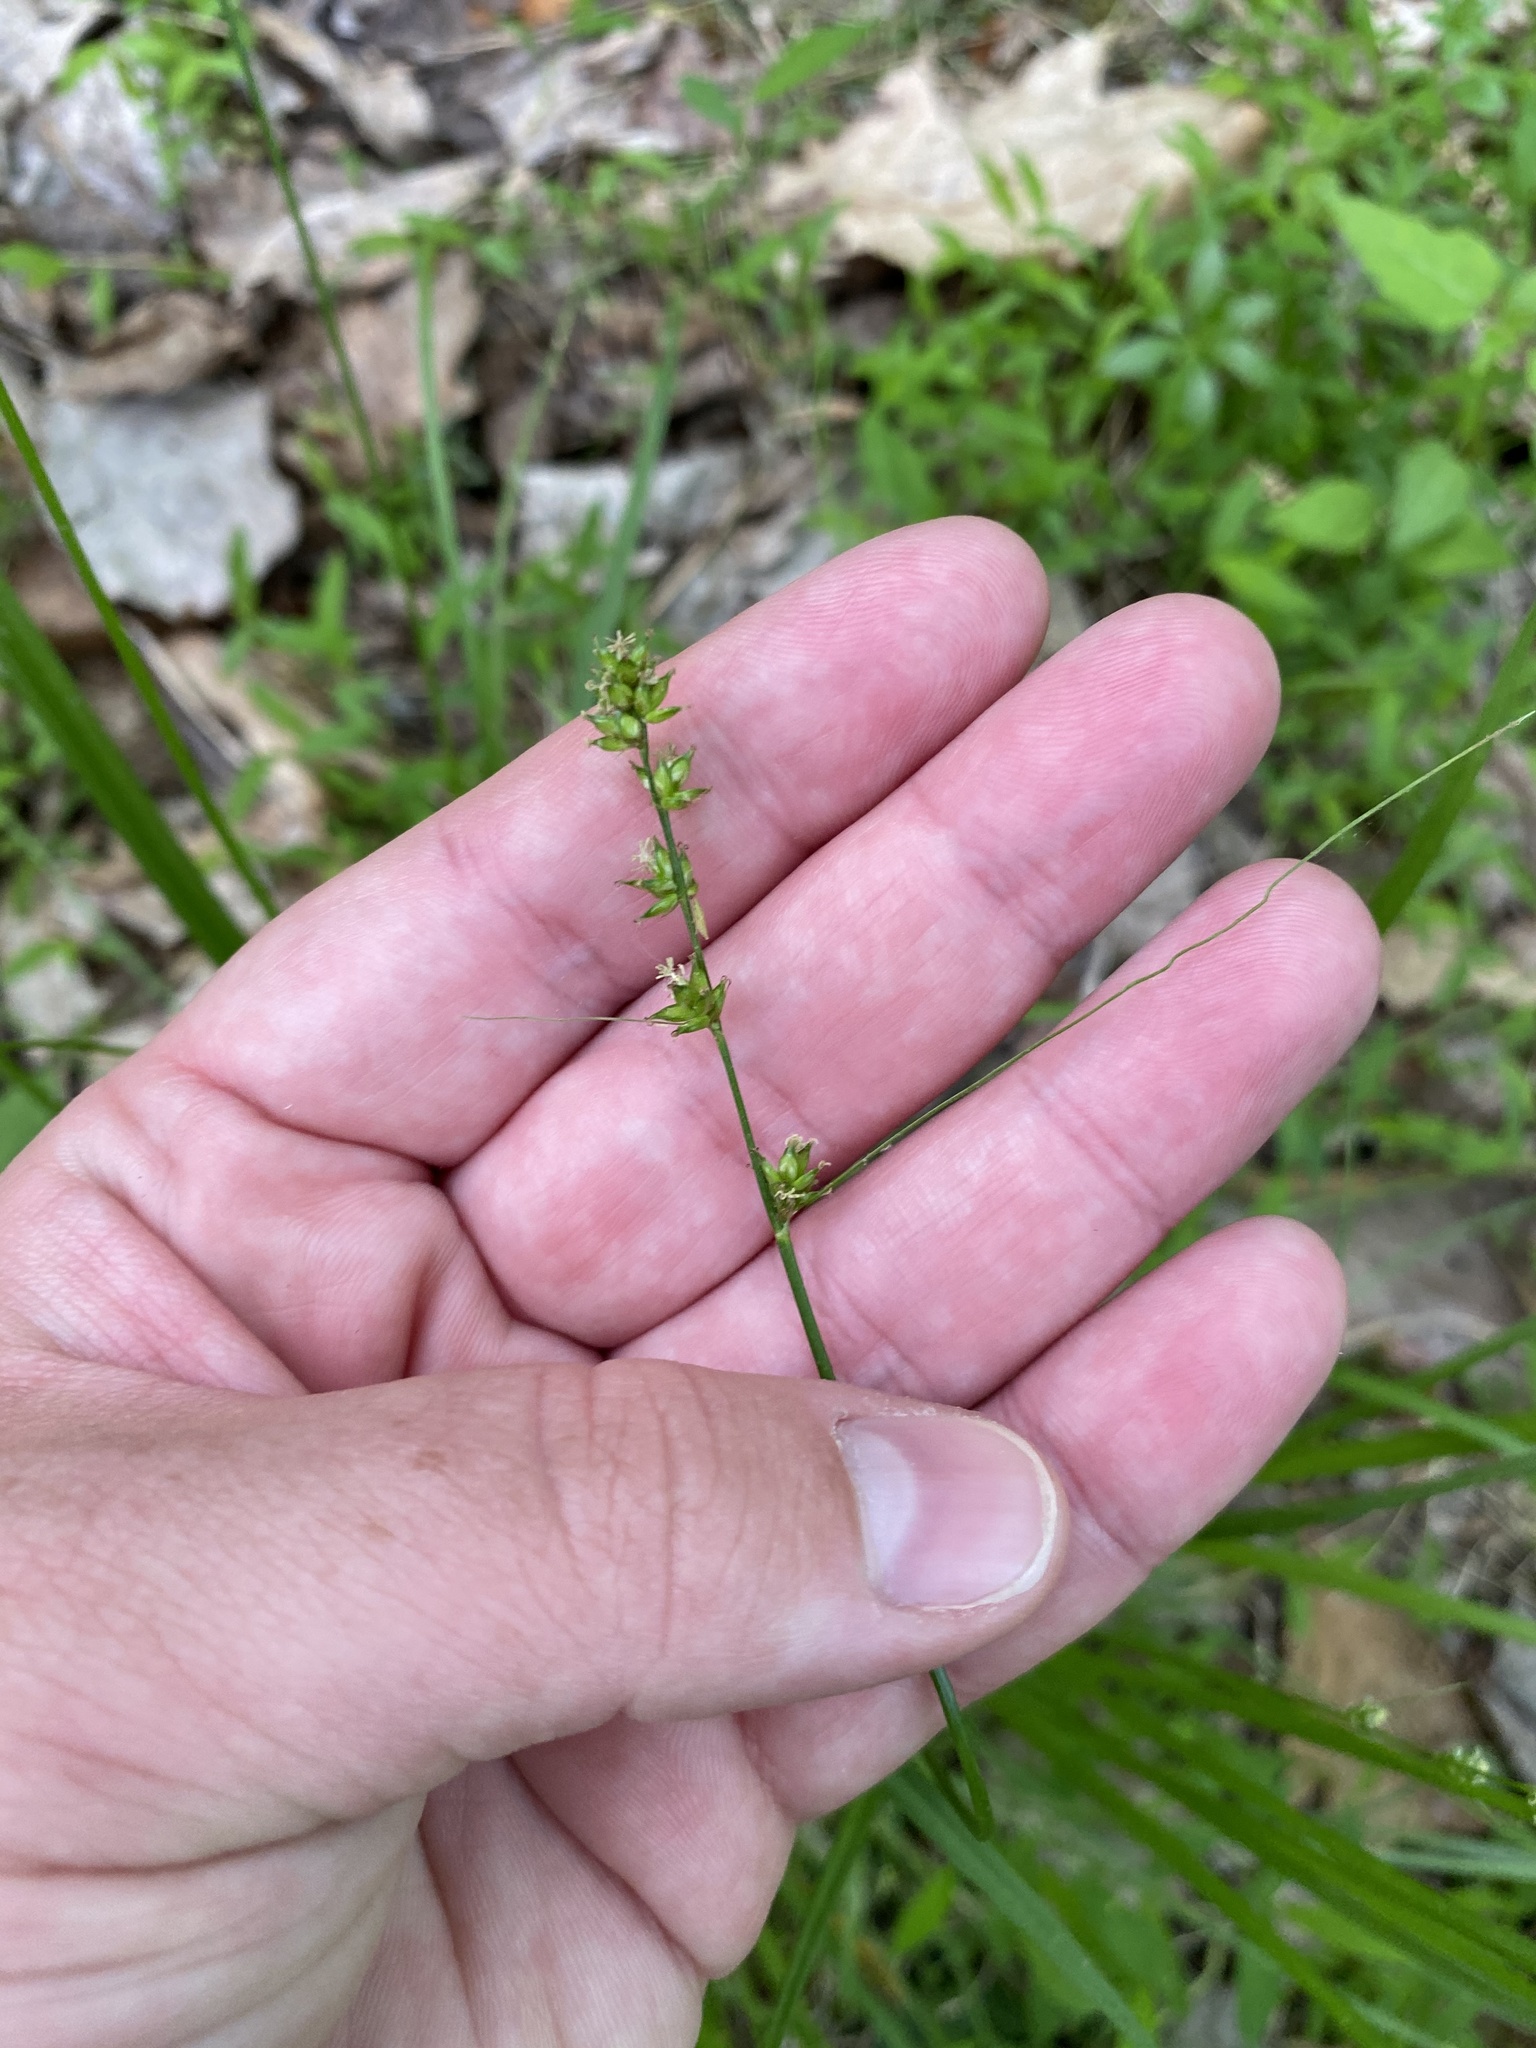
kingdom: Plantae
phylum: Tracheophyta
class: Liliopsida
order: Poales
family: Cyperaceae
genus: Carex
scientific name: Carex radiata
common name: Eastern star sedge
